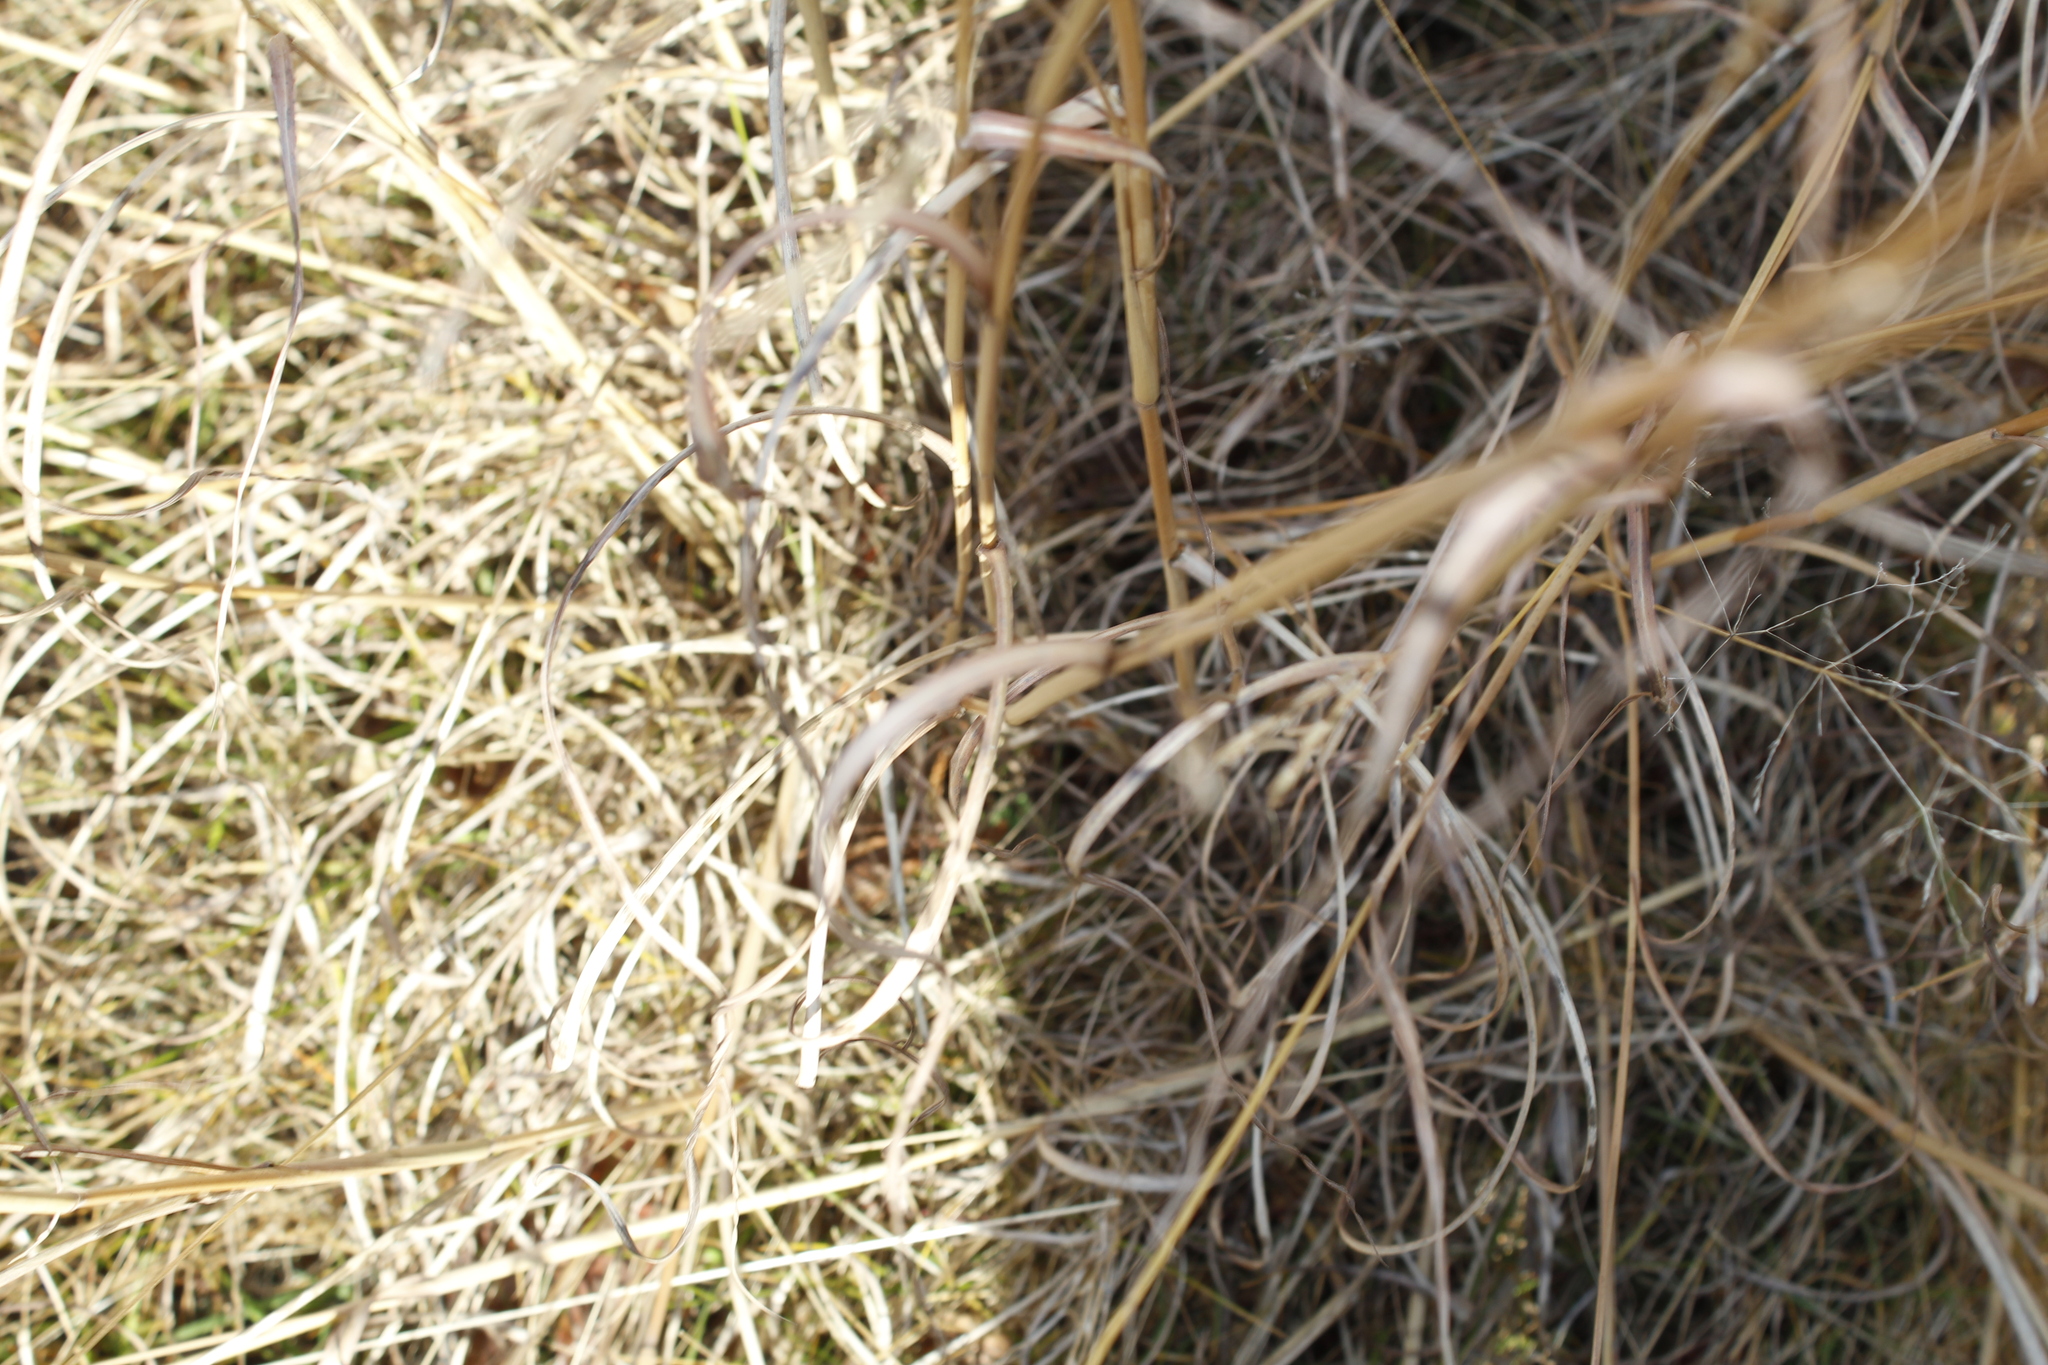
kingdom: Plantae
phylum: Tracheophyta
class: Liliopsida
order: Poales
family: Poaceae
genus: Andropogon
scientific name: Andropogon gerardi
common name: Big bluestem
